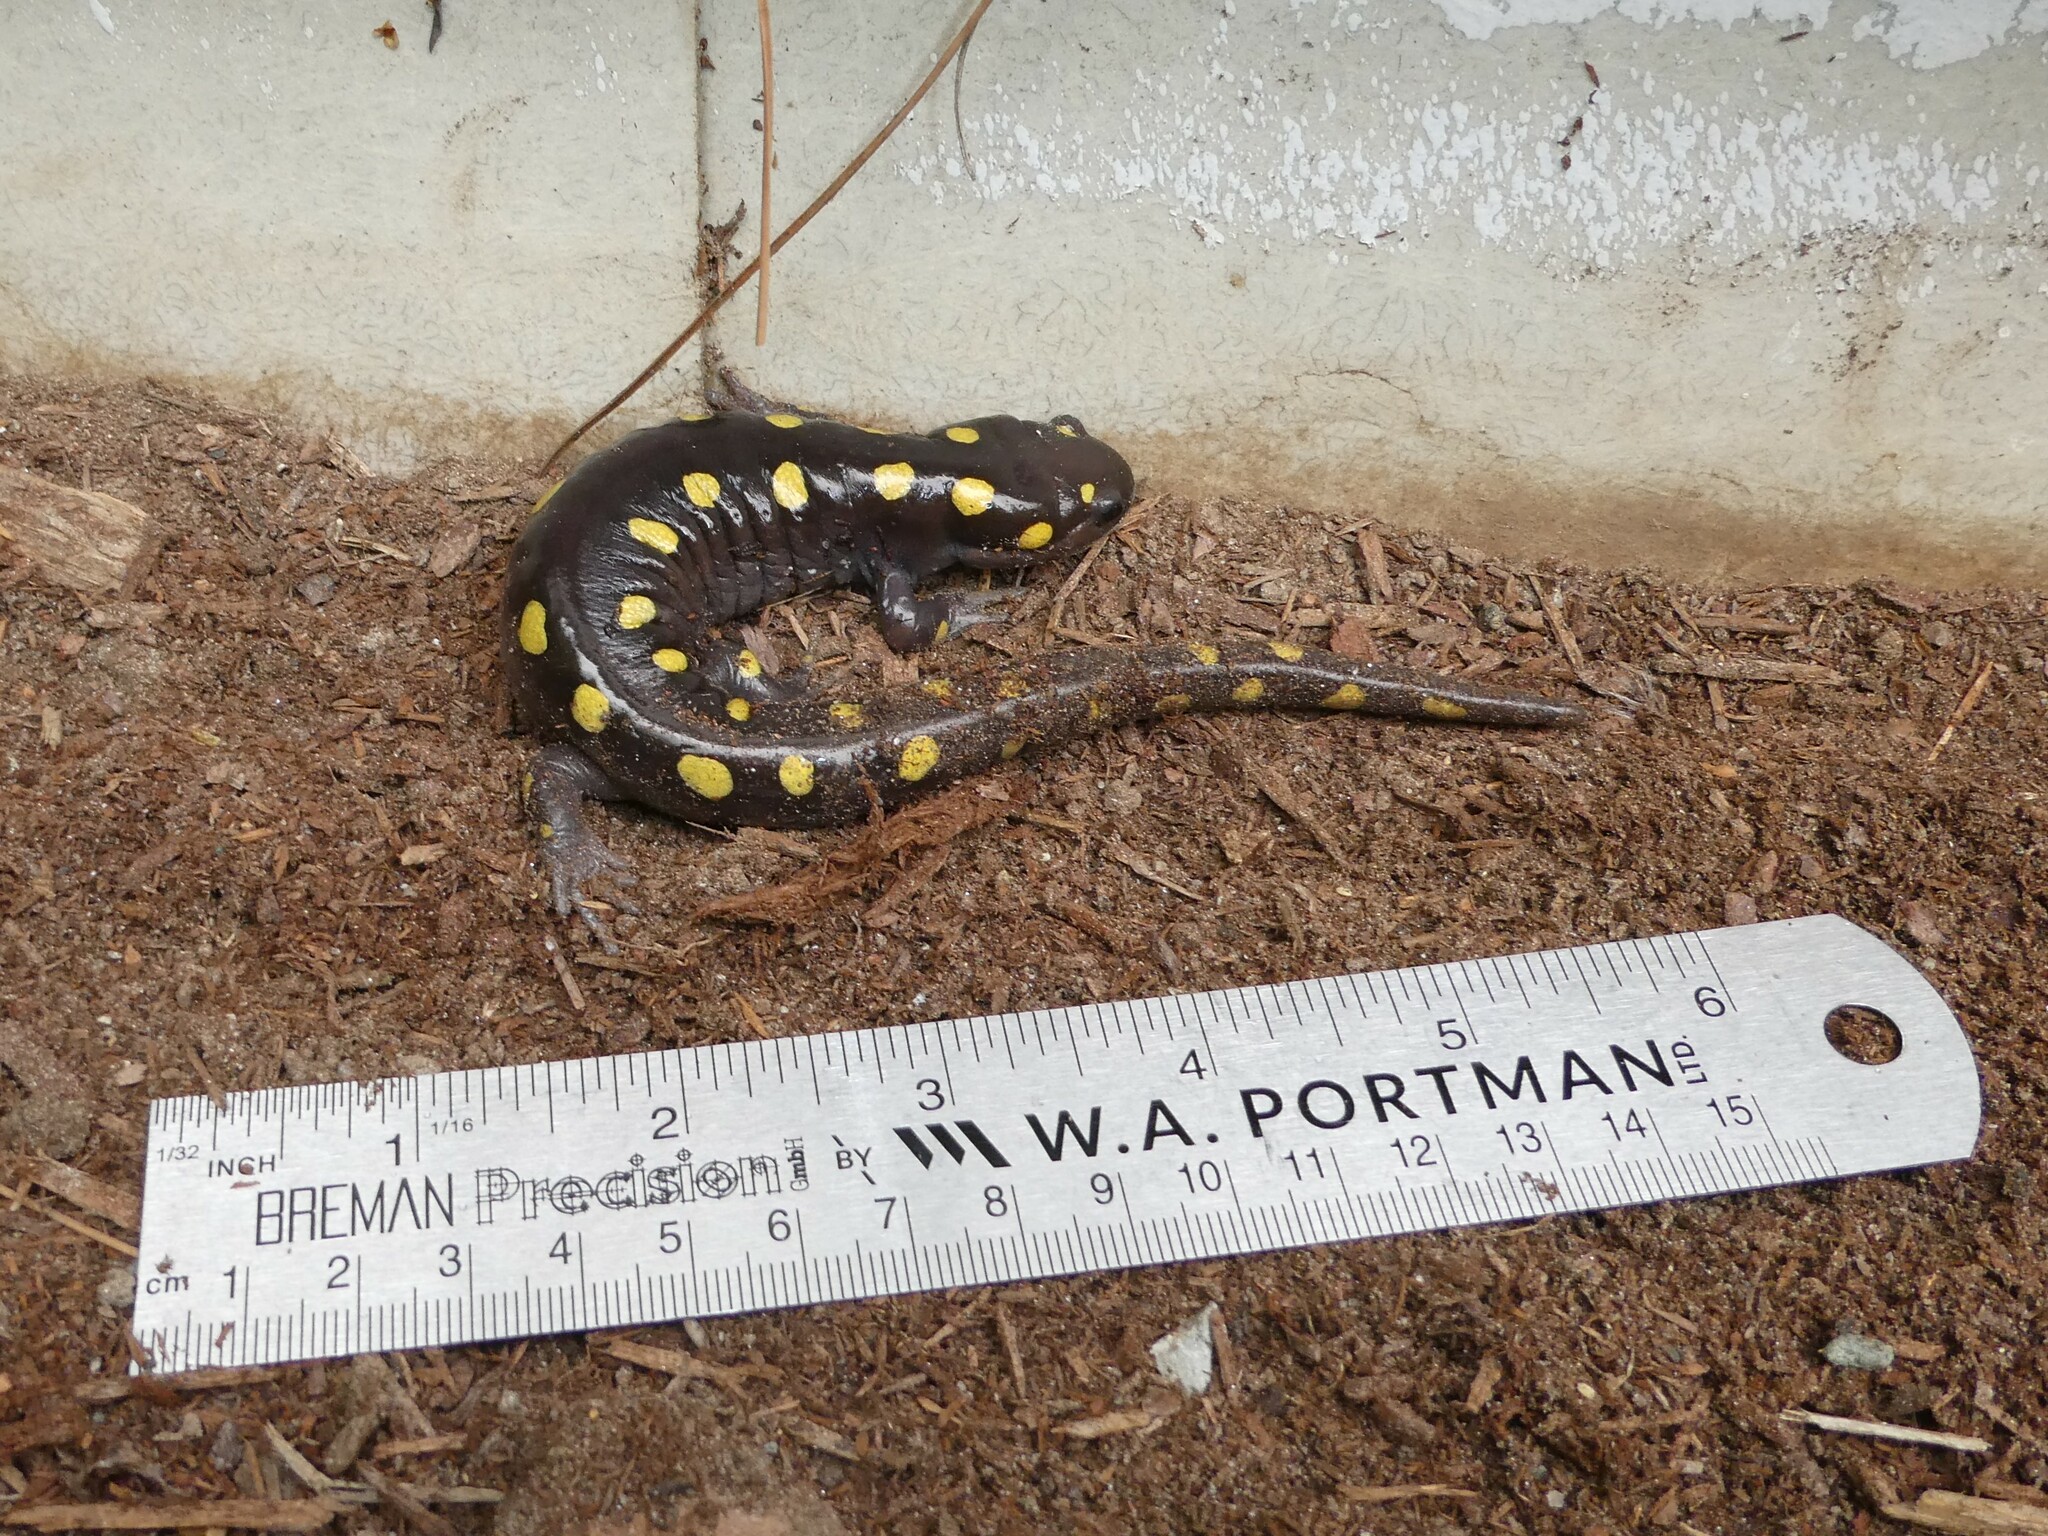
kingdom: Animalia
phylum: Chordata
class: Amphibia
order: Caudata
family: Ambystomatidae
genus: Ambystoma
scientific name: Ambystoma maculatum
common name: Spotted salamander
